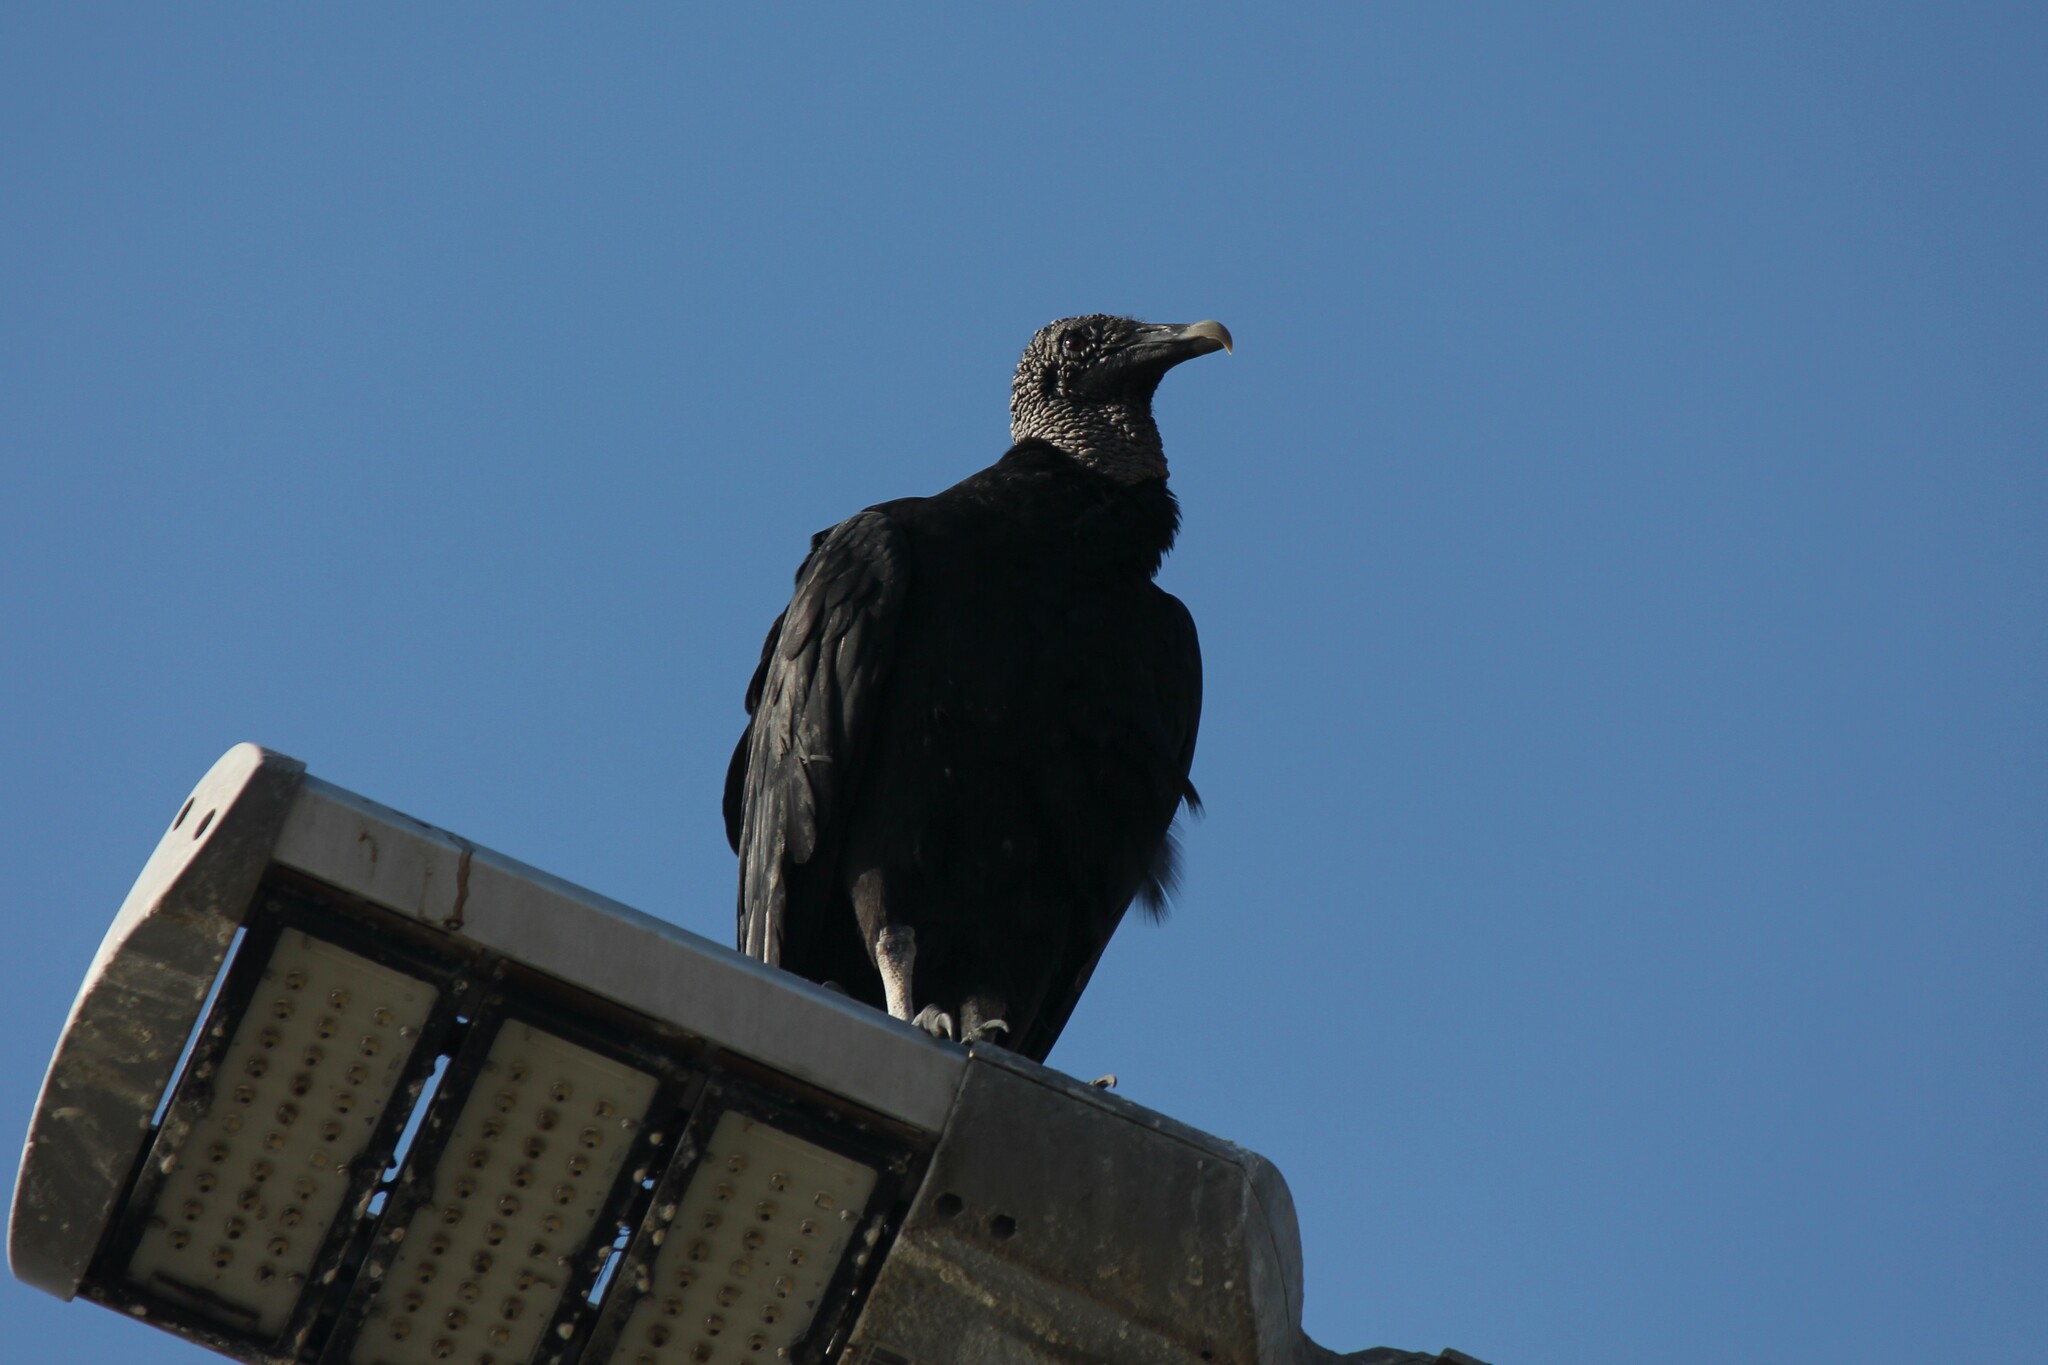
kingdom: Animalia
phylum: Chordata
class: Aves
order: Accipitriformes
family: Cathartidae
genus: Coragyps
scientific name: Coragyps atratus
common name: Black vulture
